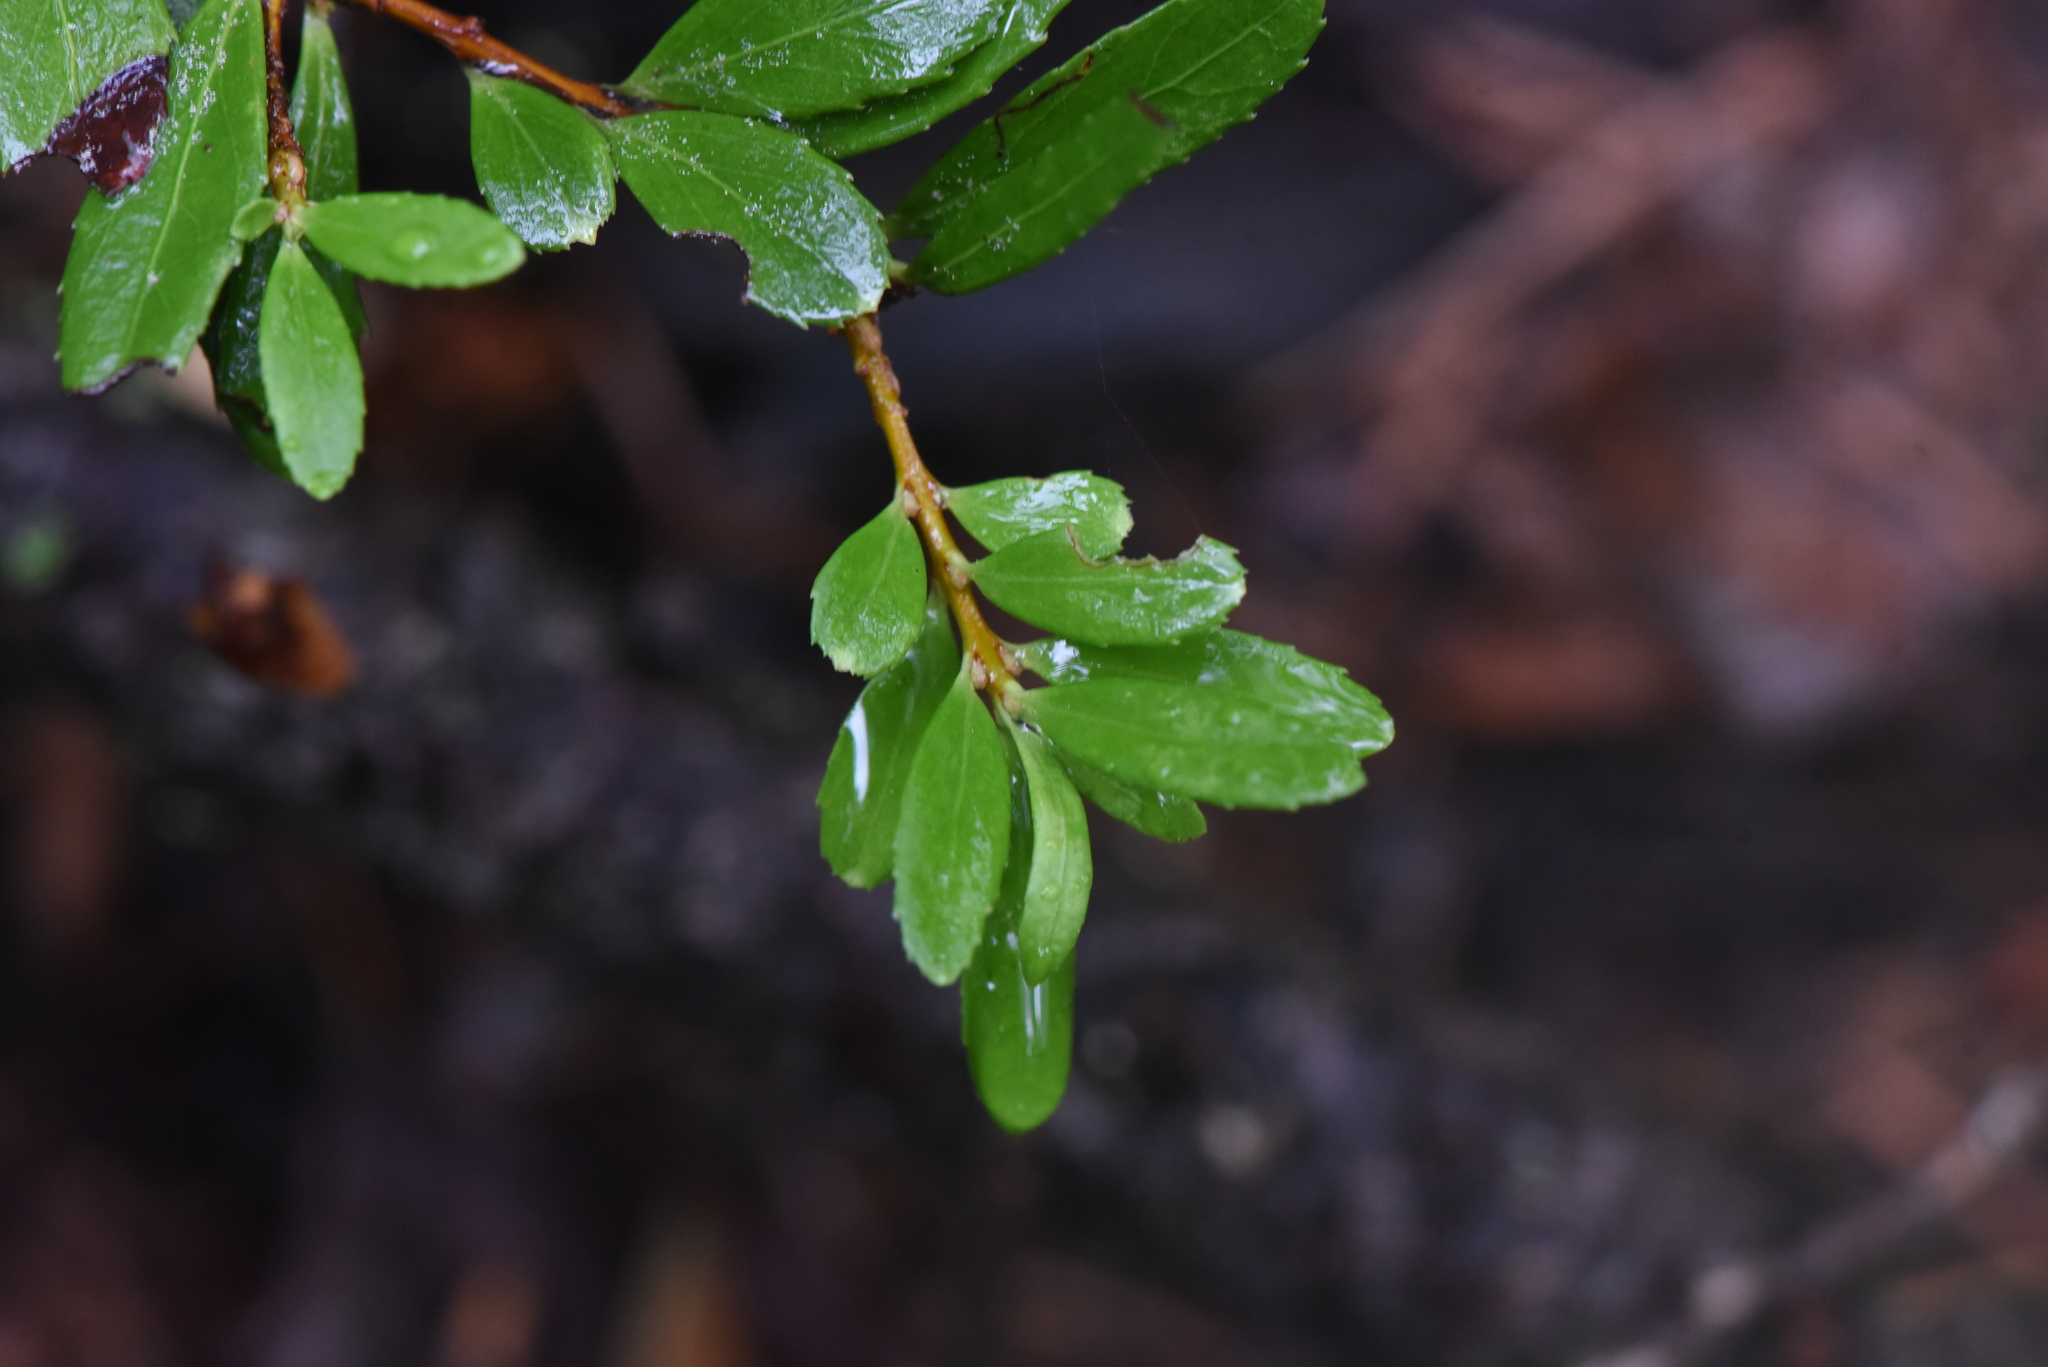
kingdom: Plantae
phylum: Tracheophyta
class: Magnoliopsida
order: Celastrales
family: Celastraceae
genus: Paxistima
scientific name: Paxistima myrsinites
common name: Mountain-lover
